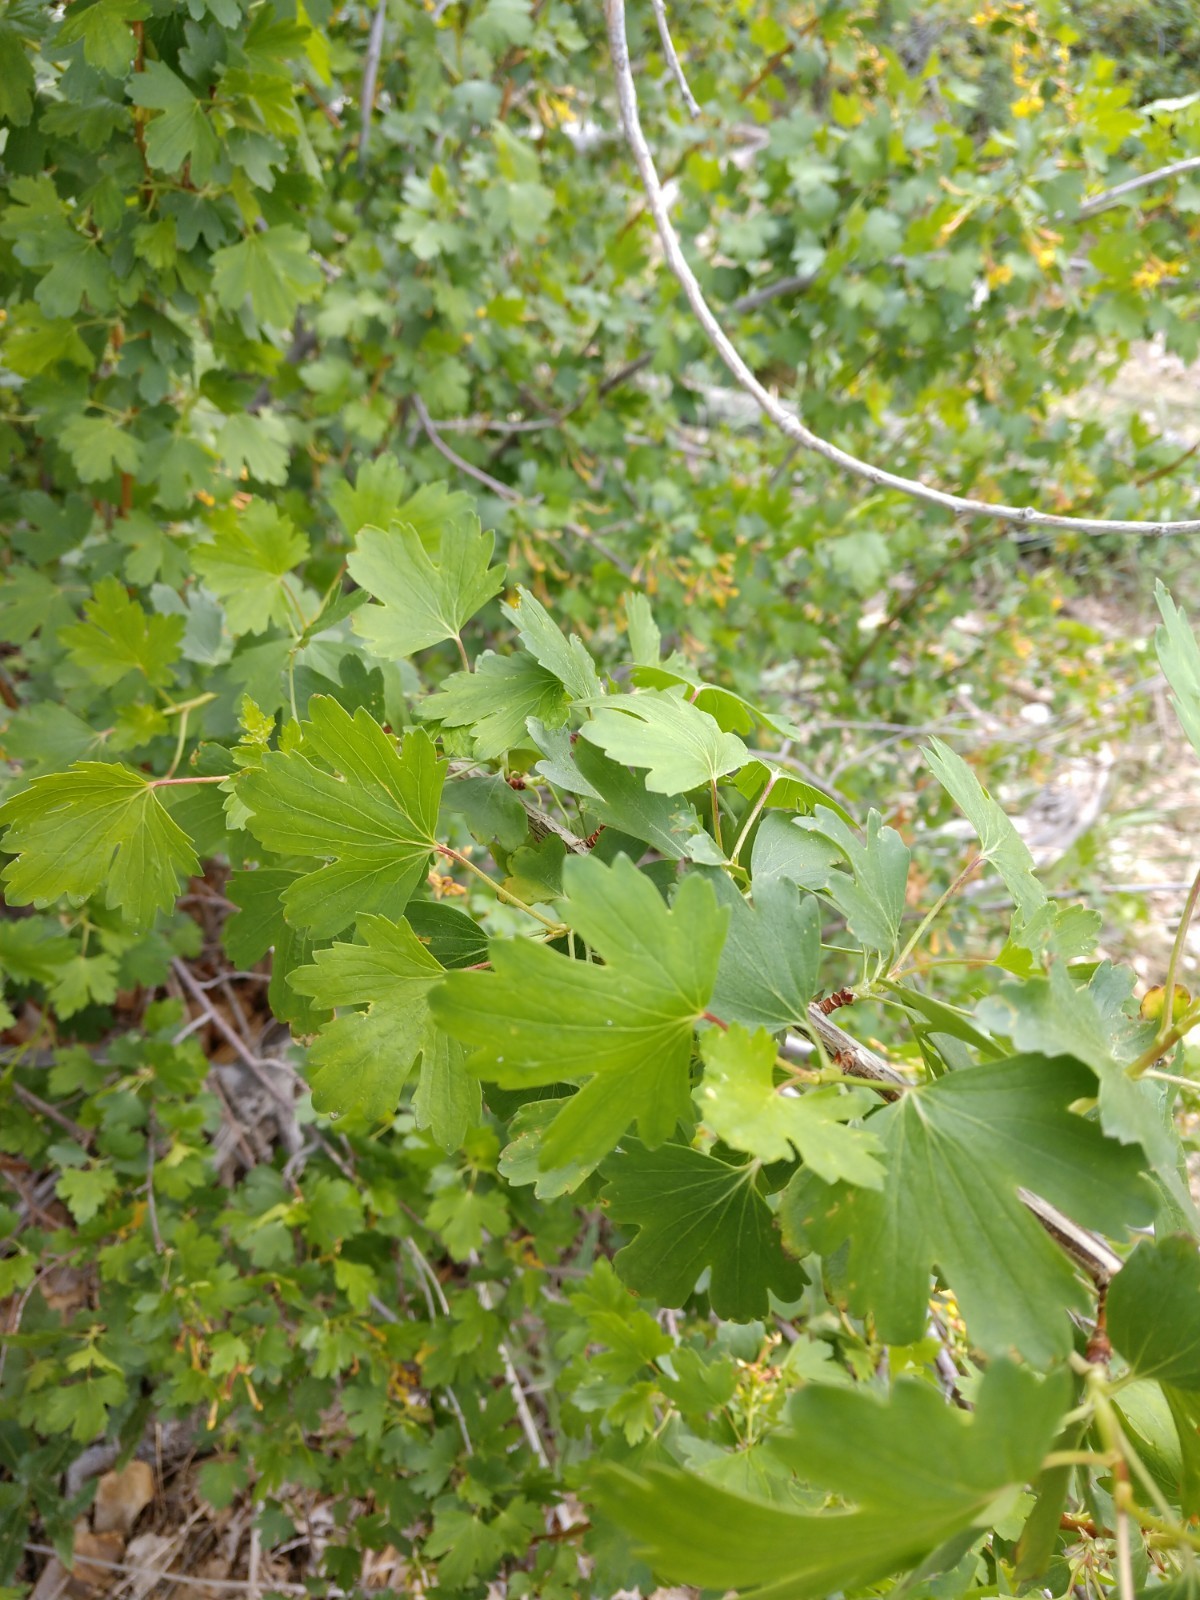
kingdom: Plantae
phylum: Tracheophyta
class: Magnoliopsida
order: Saxifragales
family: Grossulariaceae
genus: Ribes
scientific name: Ribes aureum
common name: Golden currant
